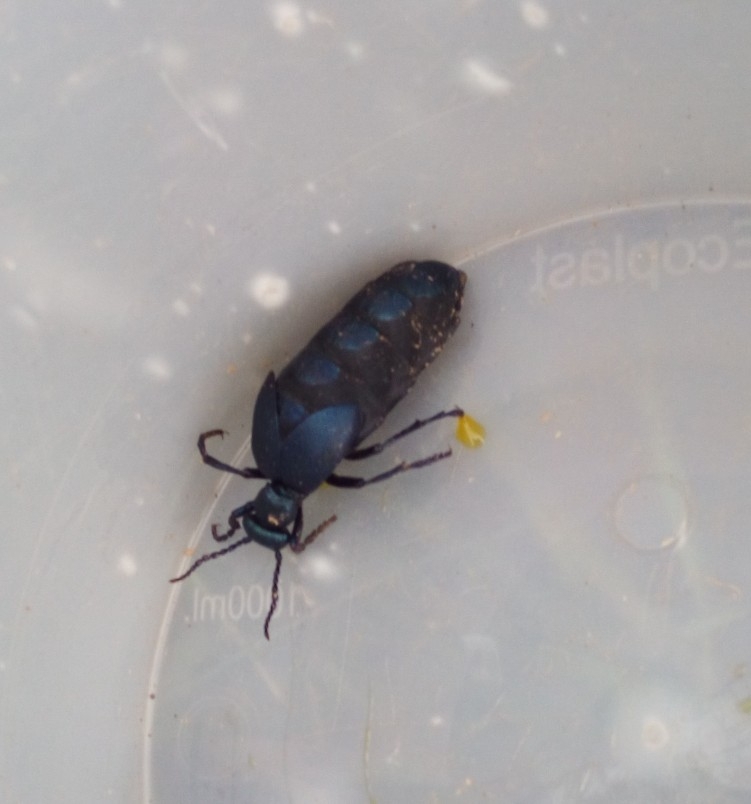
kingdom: Animalia
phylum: Arthropoda
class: Insecta
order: Coleoptera
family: Meloidae
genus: Meloe
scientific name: Meloe violaceus
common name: Violet oil-beetle
